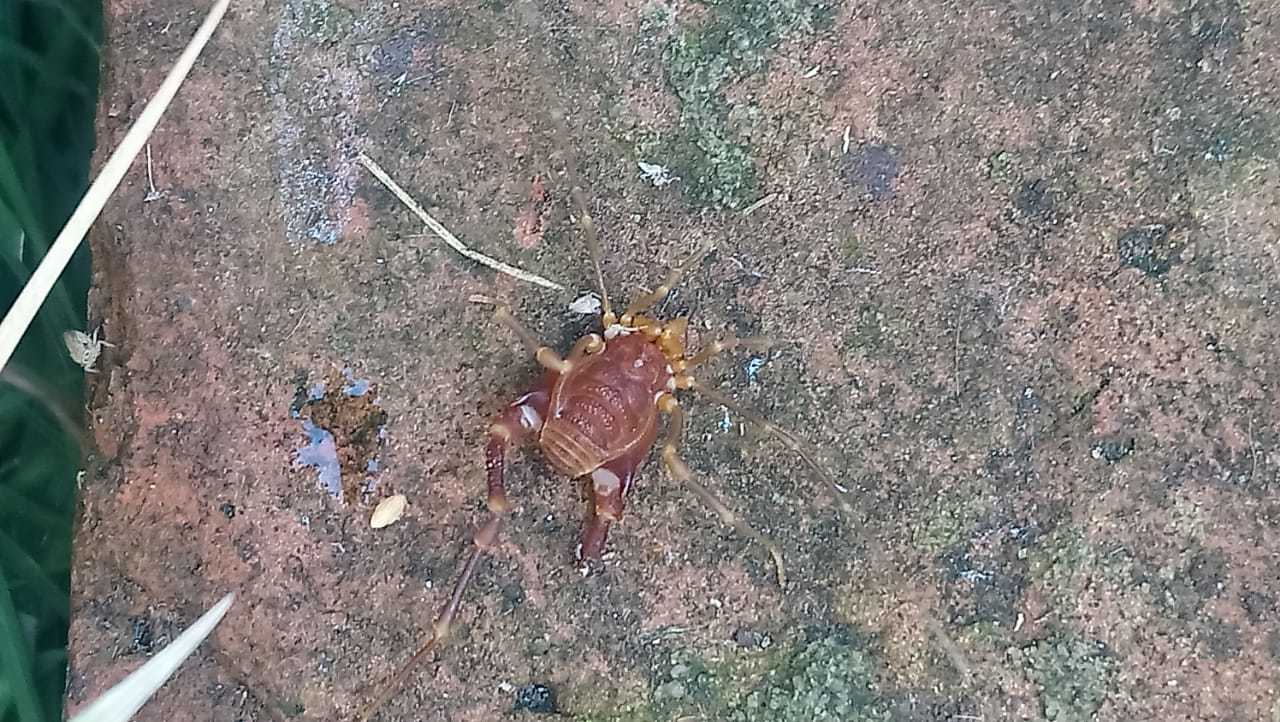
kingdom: Animalia
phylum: Arthropoda
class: Arachnida
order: Opiliones
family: Gonyleptidae
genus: Pachyloides
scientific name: Pachyloides thorellii
